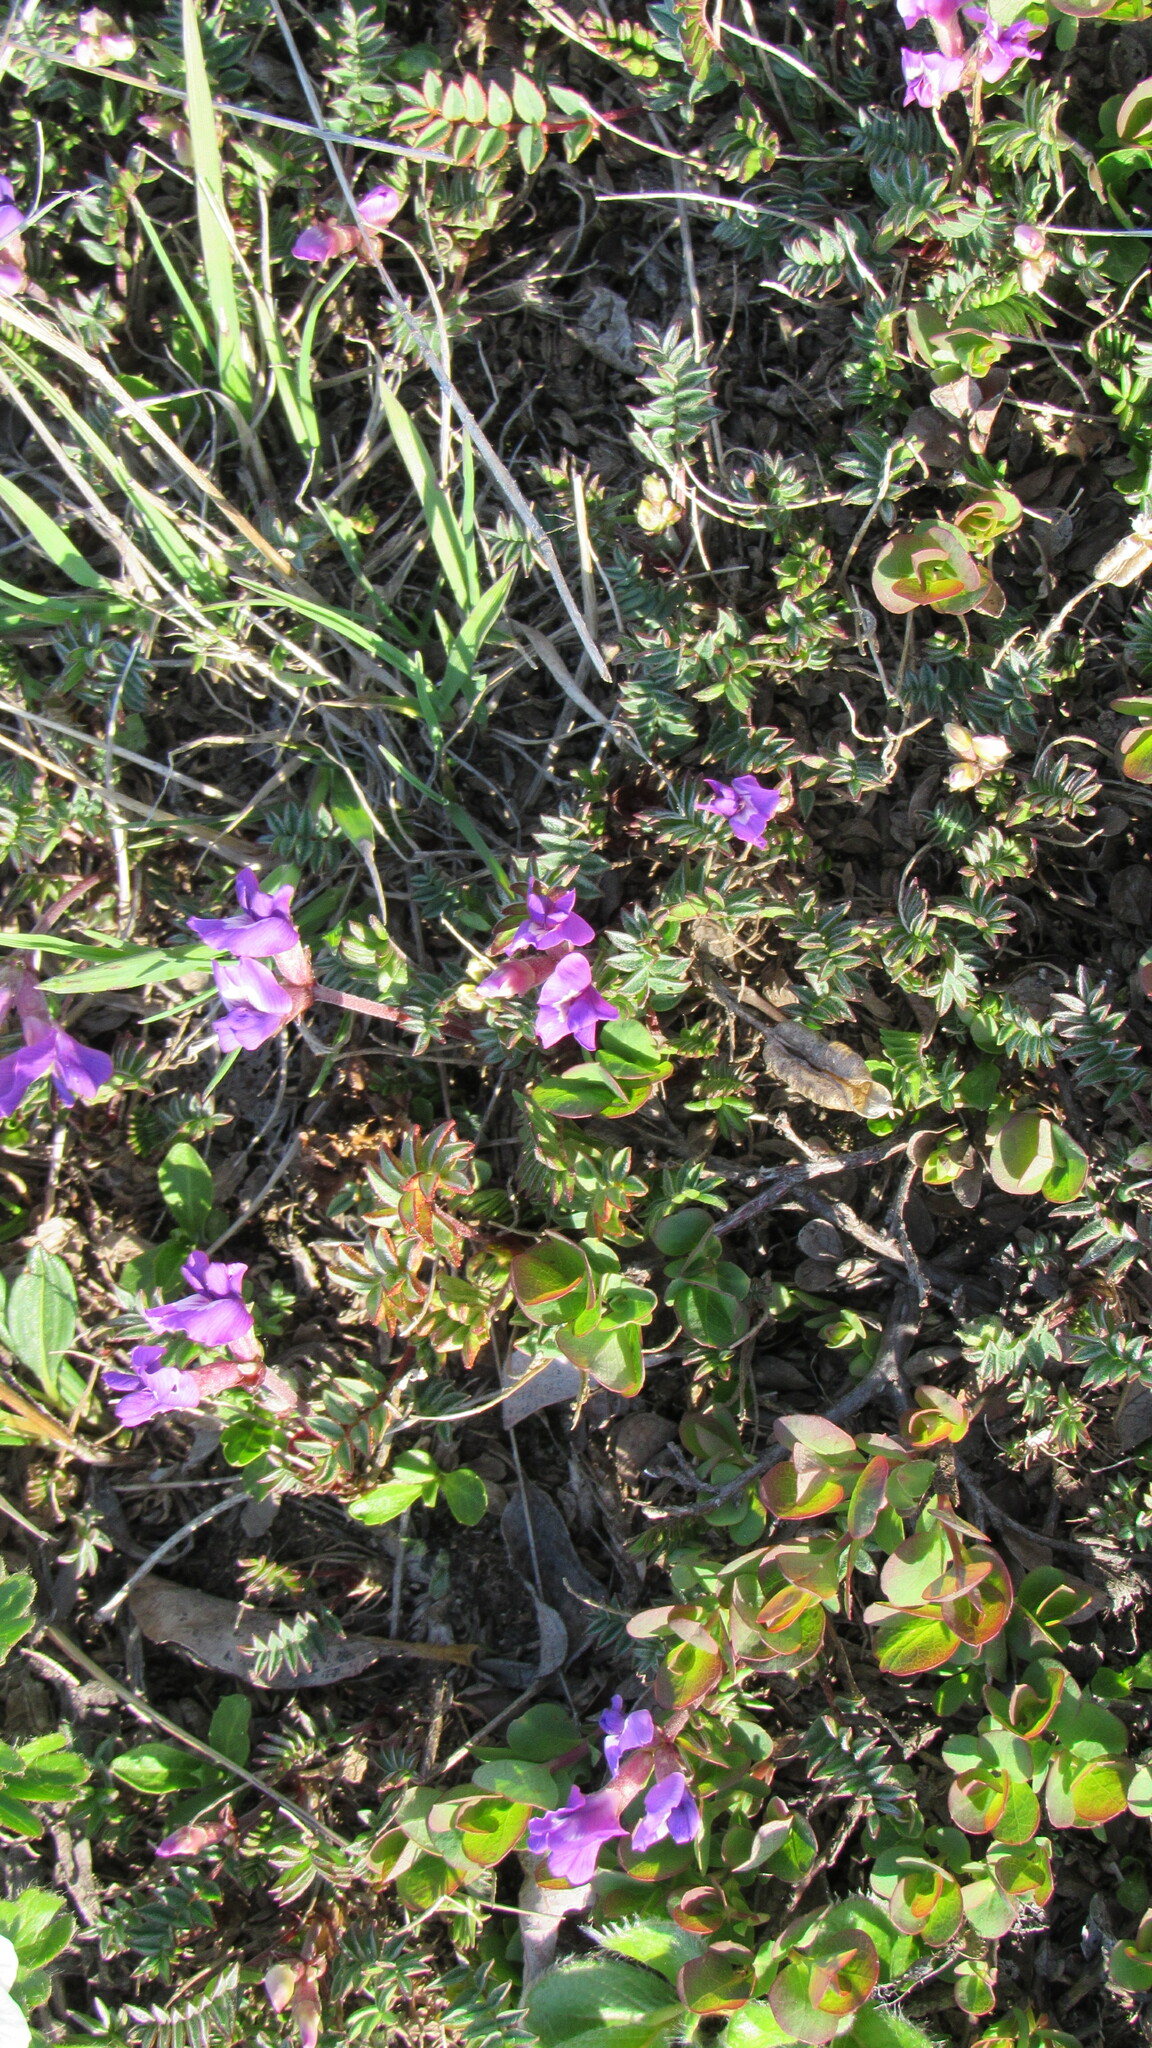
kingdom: Plantae
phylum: Tracheophyta
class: Magnoliopsida
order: Fabales
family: Fabaceae
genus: Oxytropis
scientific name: Oxytropis revoluta
